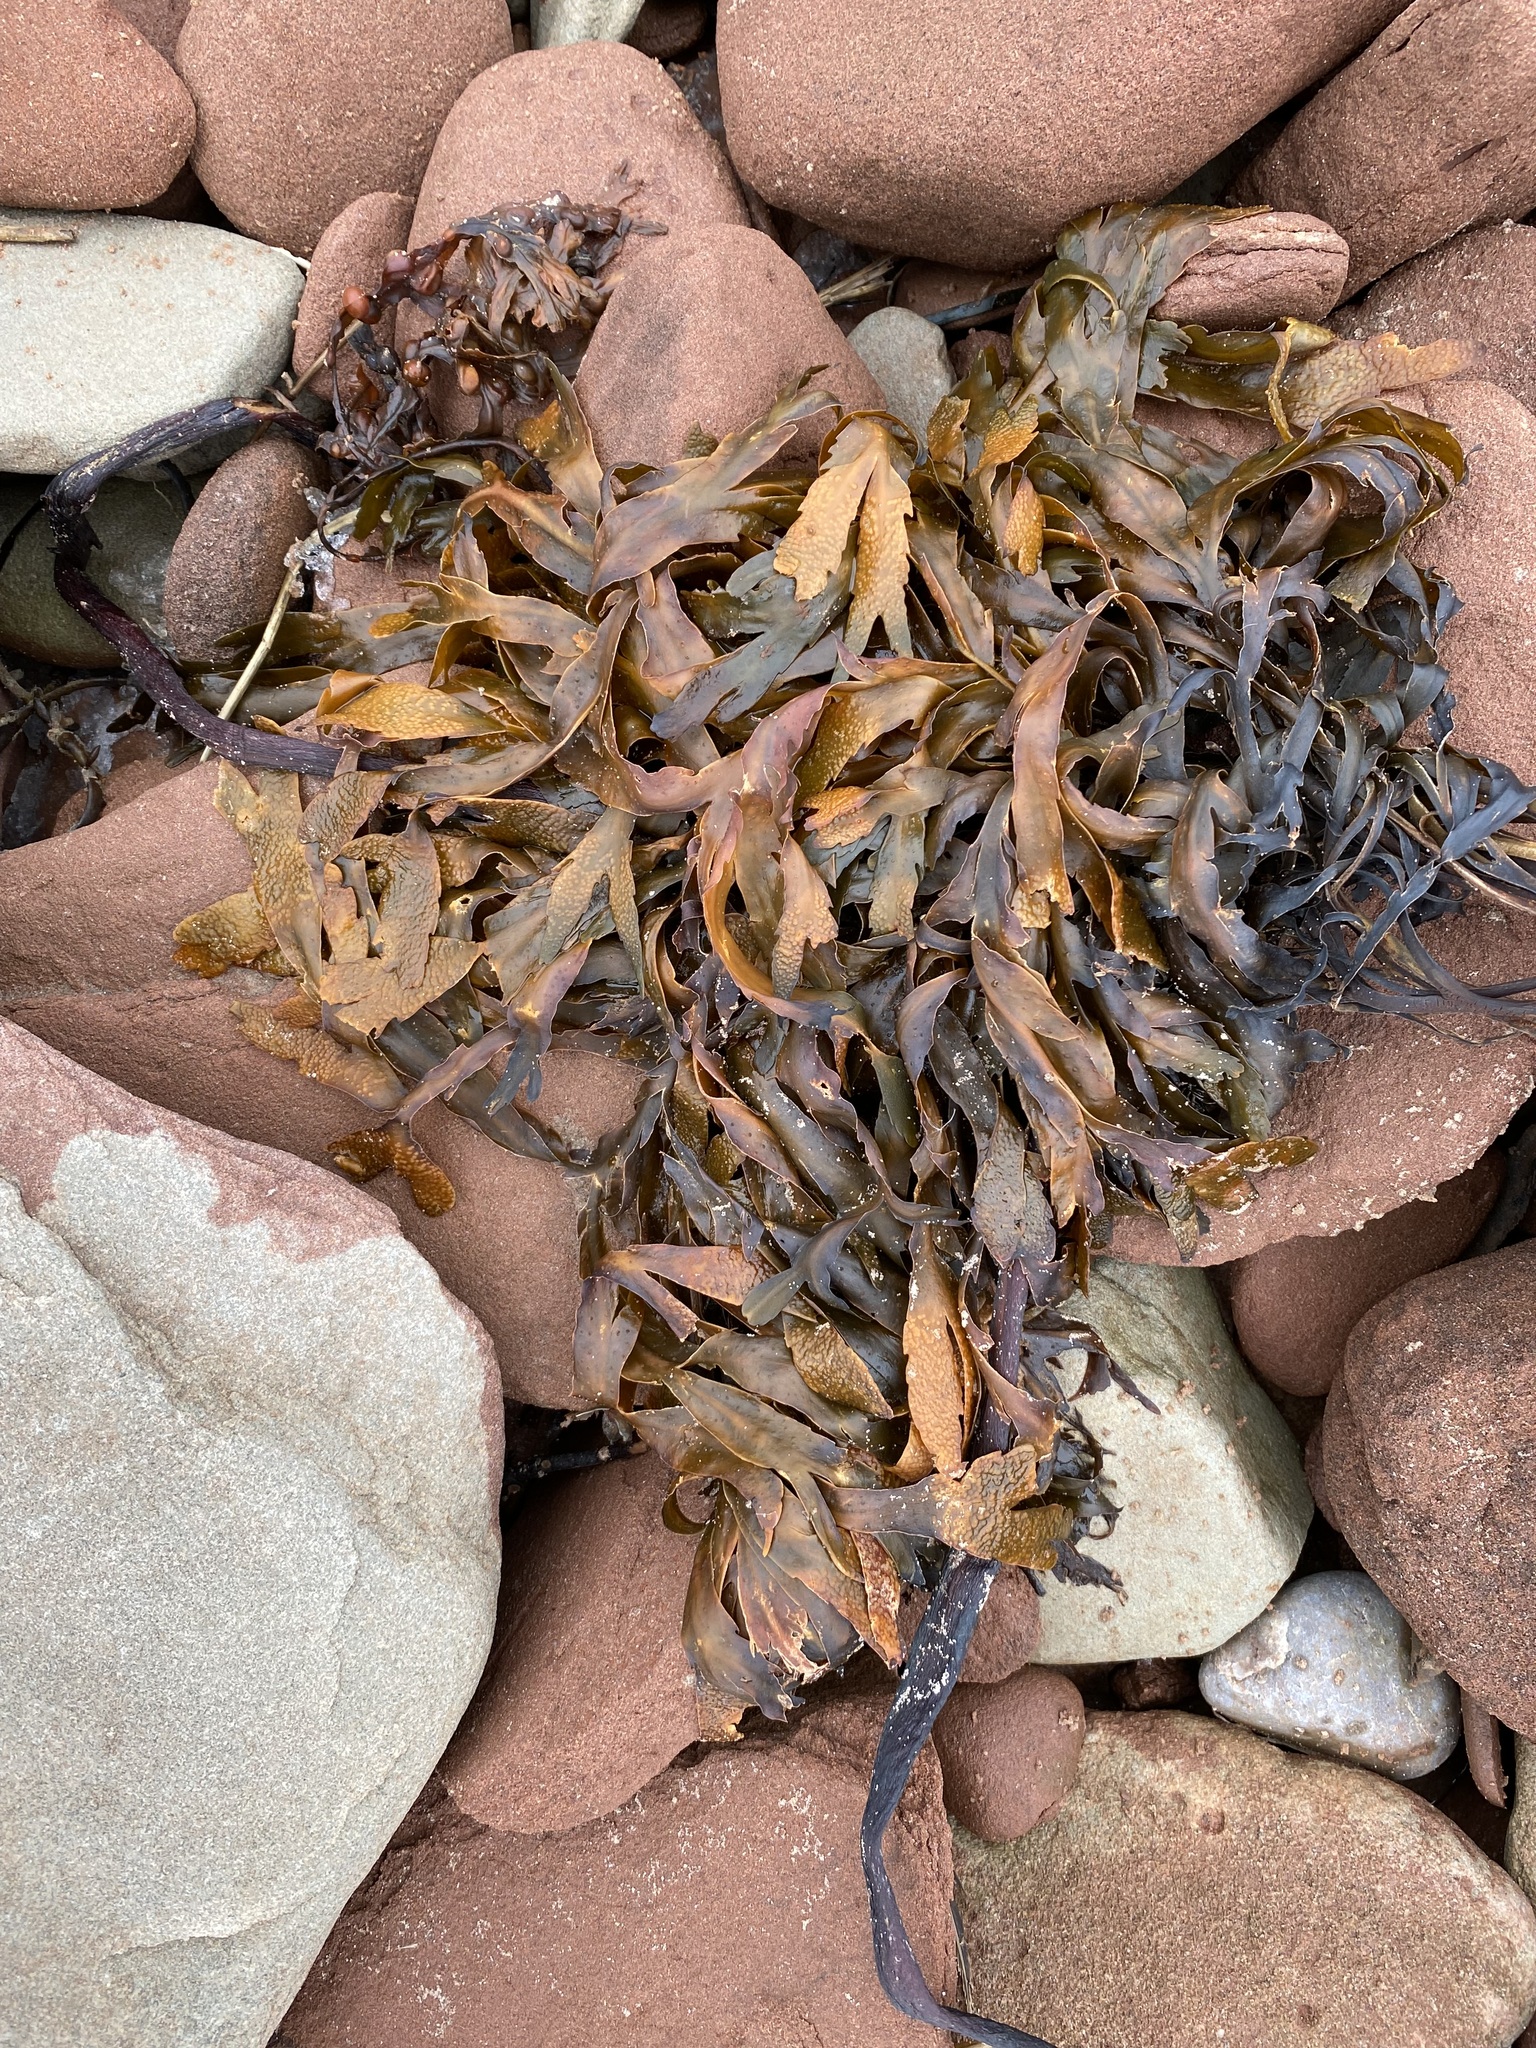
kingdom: Chromista
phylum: Ochrophyta
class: Phaeophyceae
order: Fucales
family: Fucaceae
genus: Fucus
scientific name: Fucus serratus
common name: Toothed wrack
